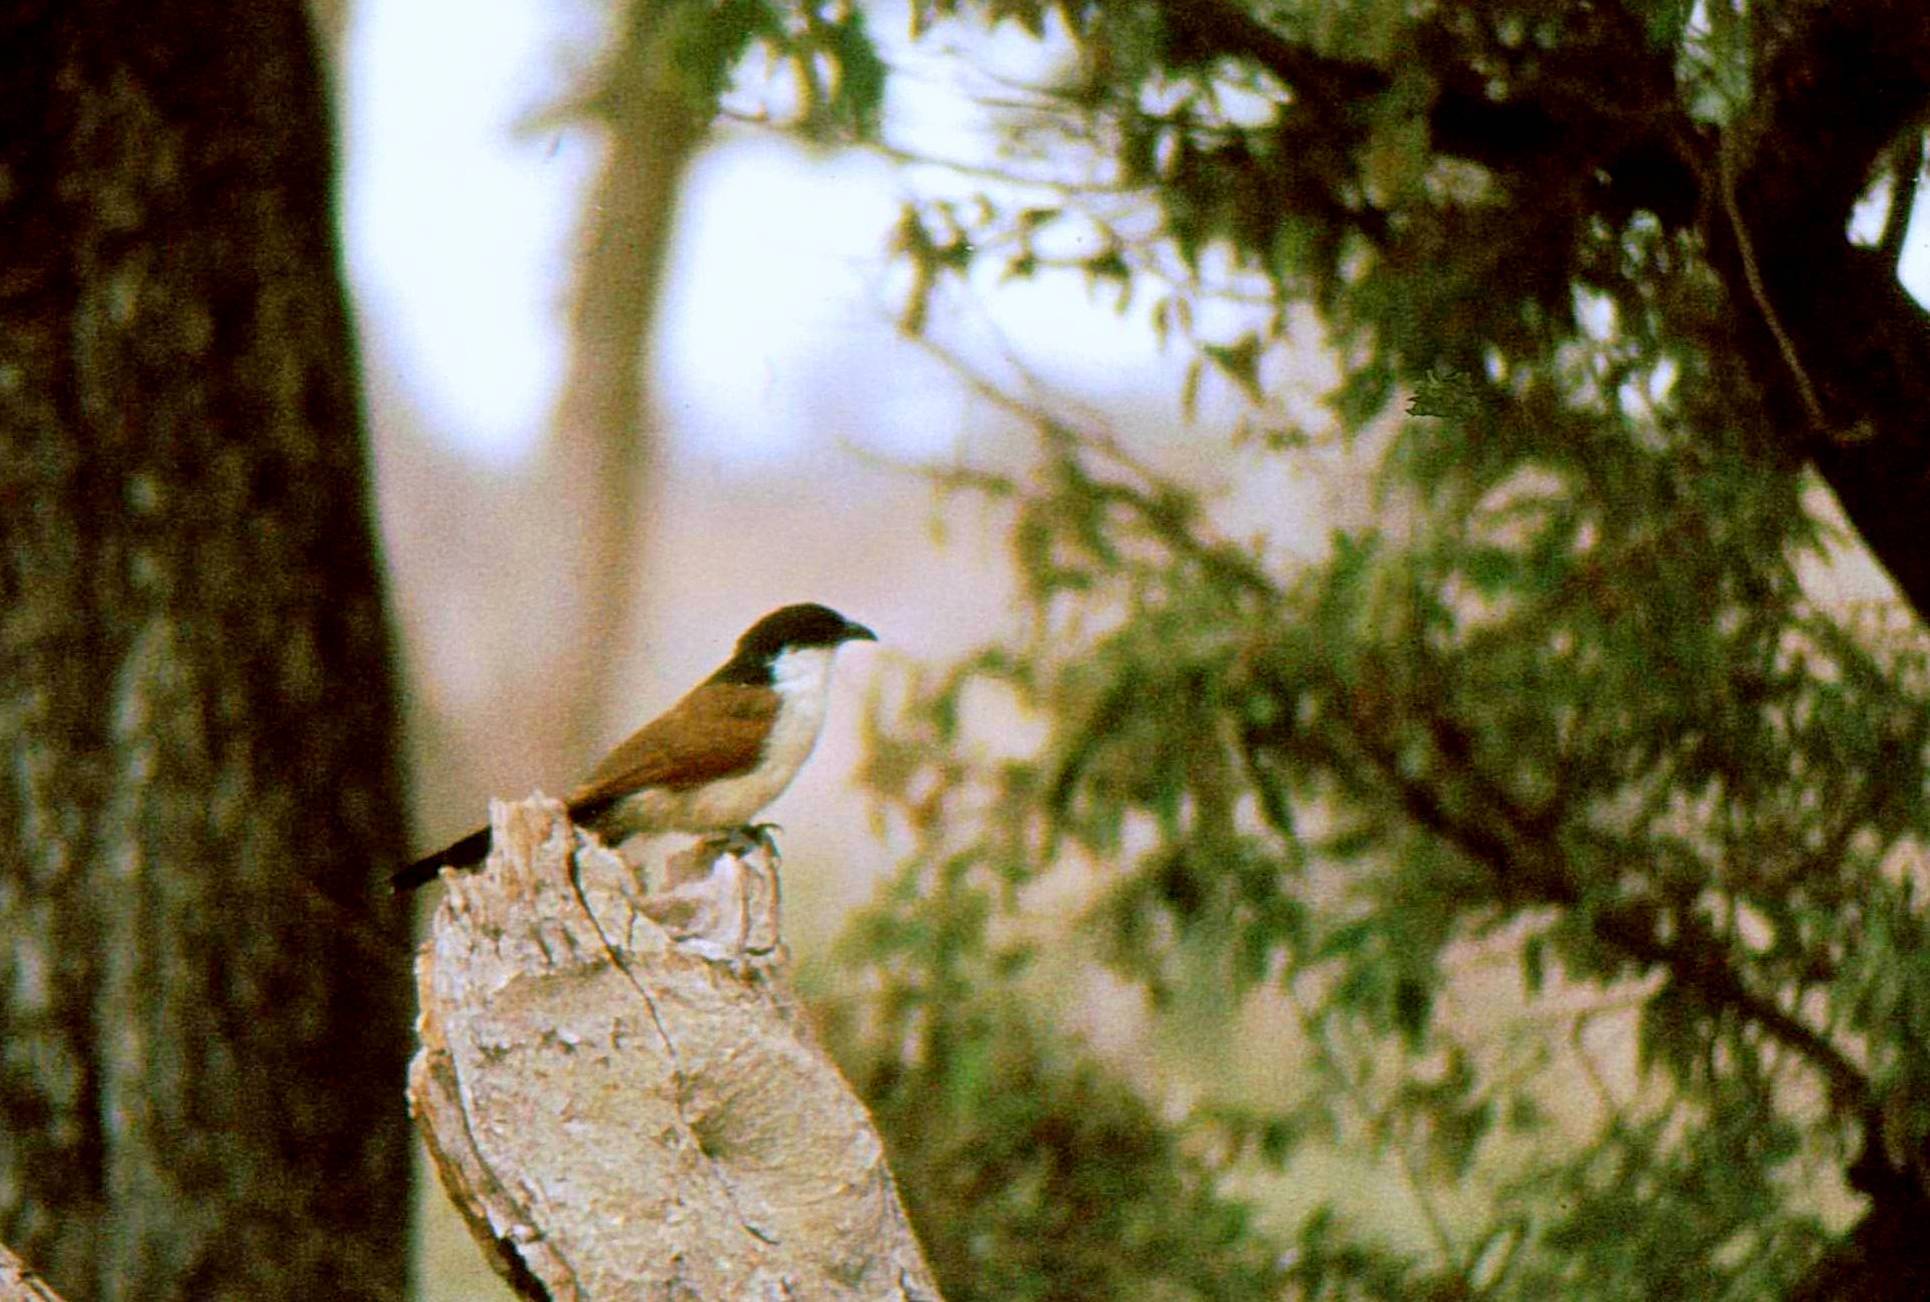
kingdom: Animalia
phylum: Chordata
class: Aves
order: Cuculiformes
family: Cuculidae
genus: Centropus
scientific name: Centropus superciliosus
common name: White-browed coucal
